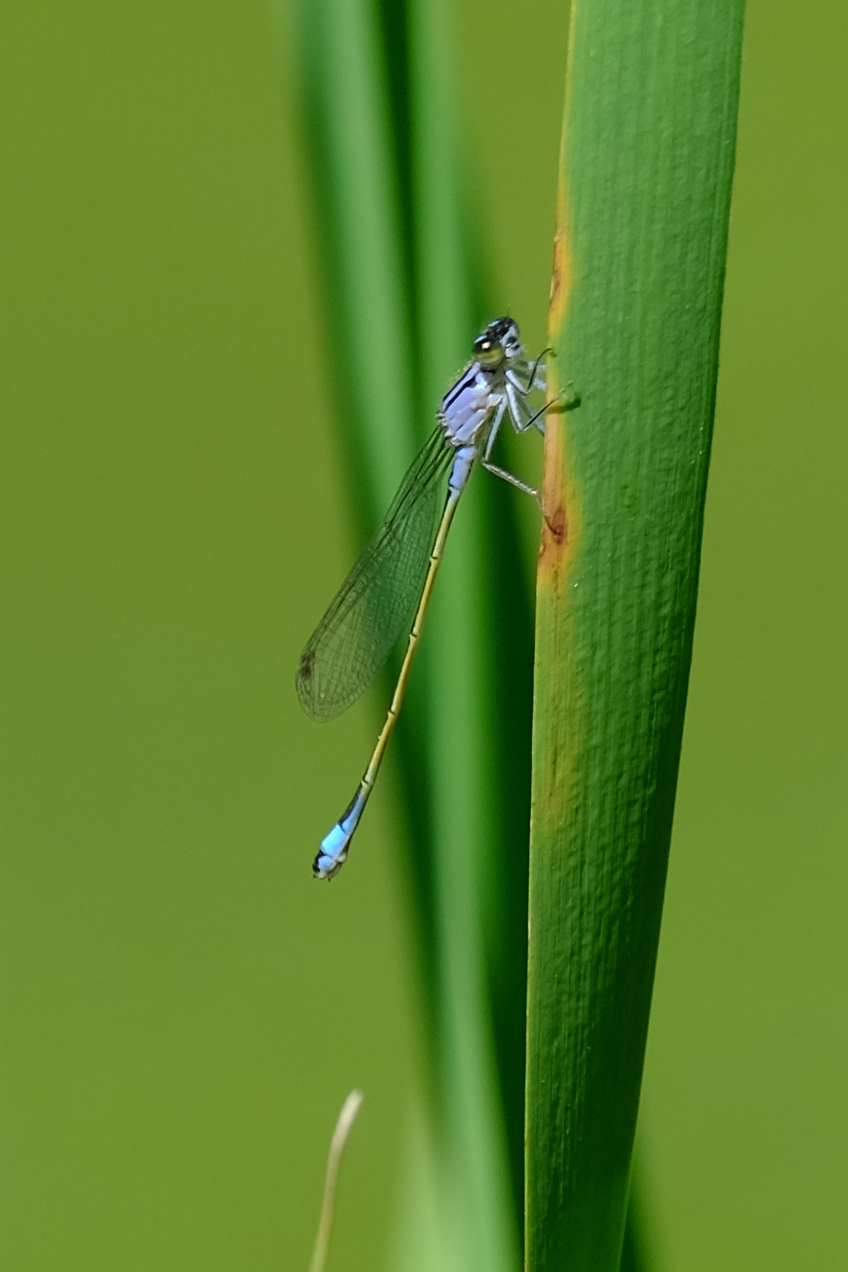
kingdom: Animalia
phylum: Arthropoda
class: Insecta
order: Odonata
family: Coenagrionidae
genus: Ischnura
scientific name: Ischnura elegans
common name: Blue-tailed damselfly
